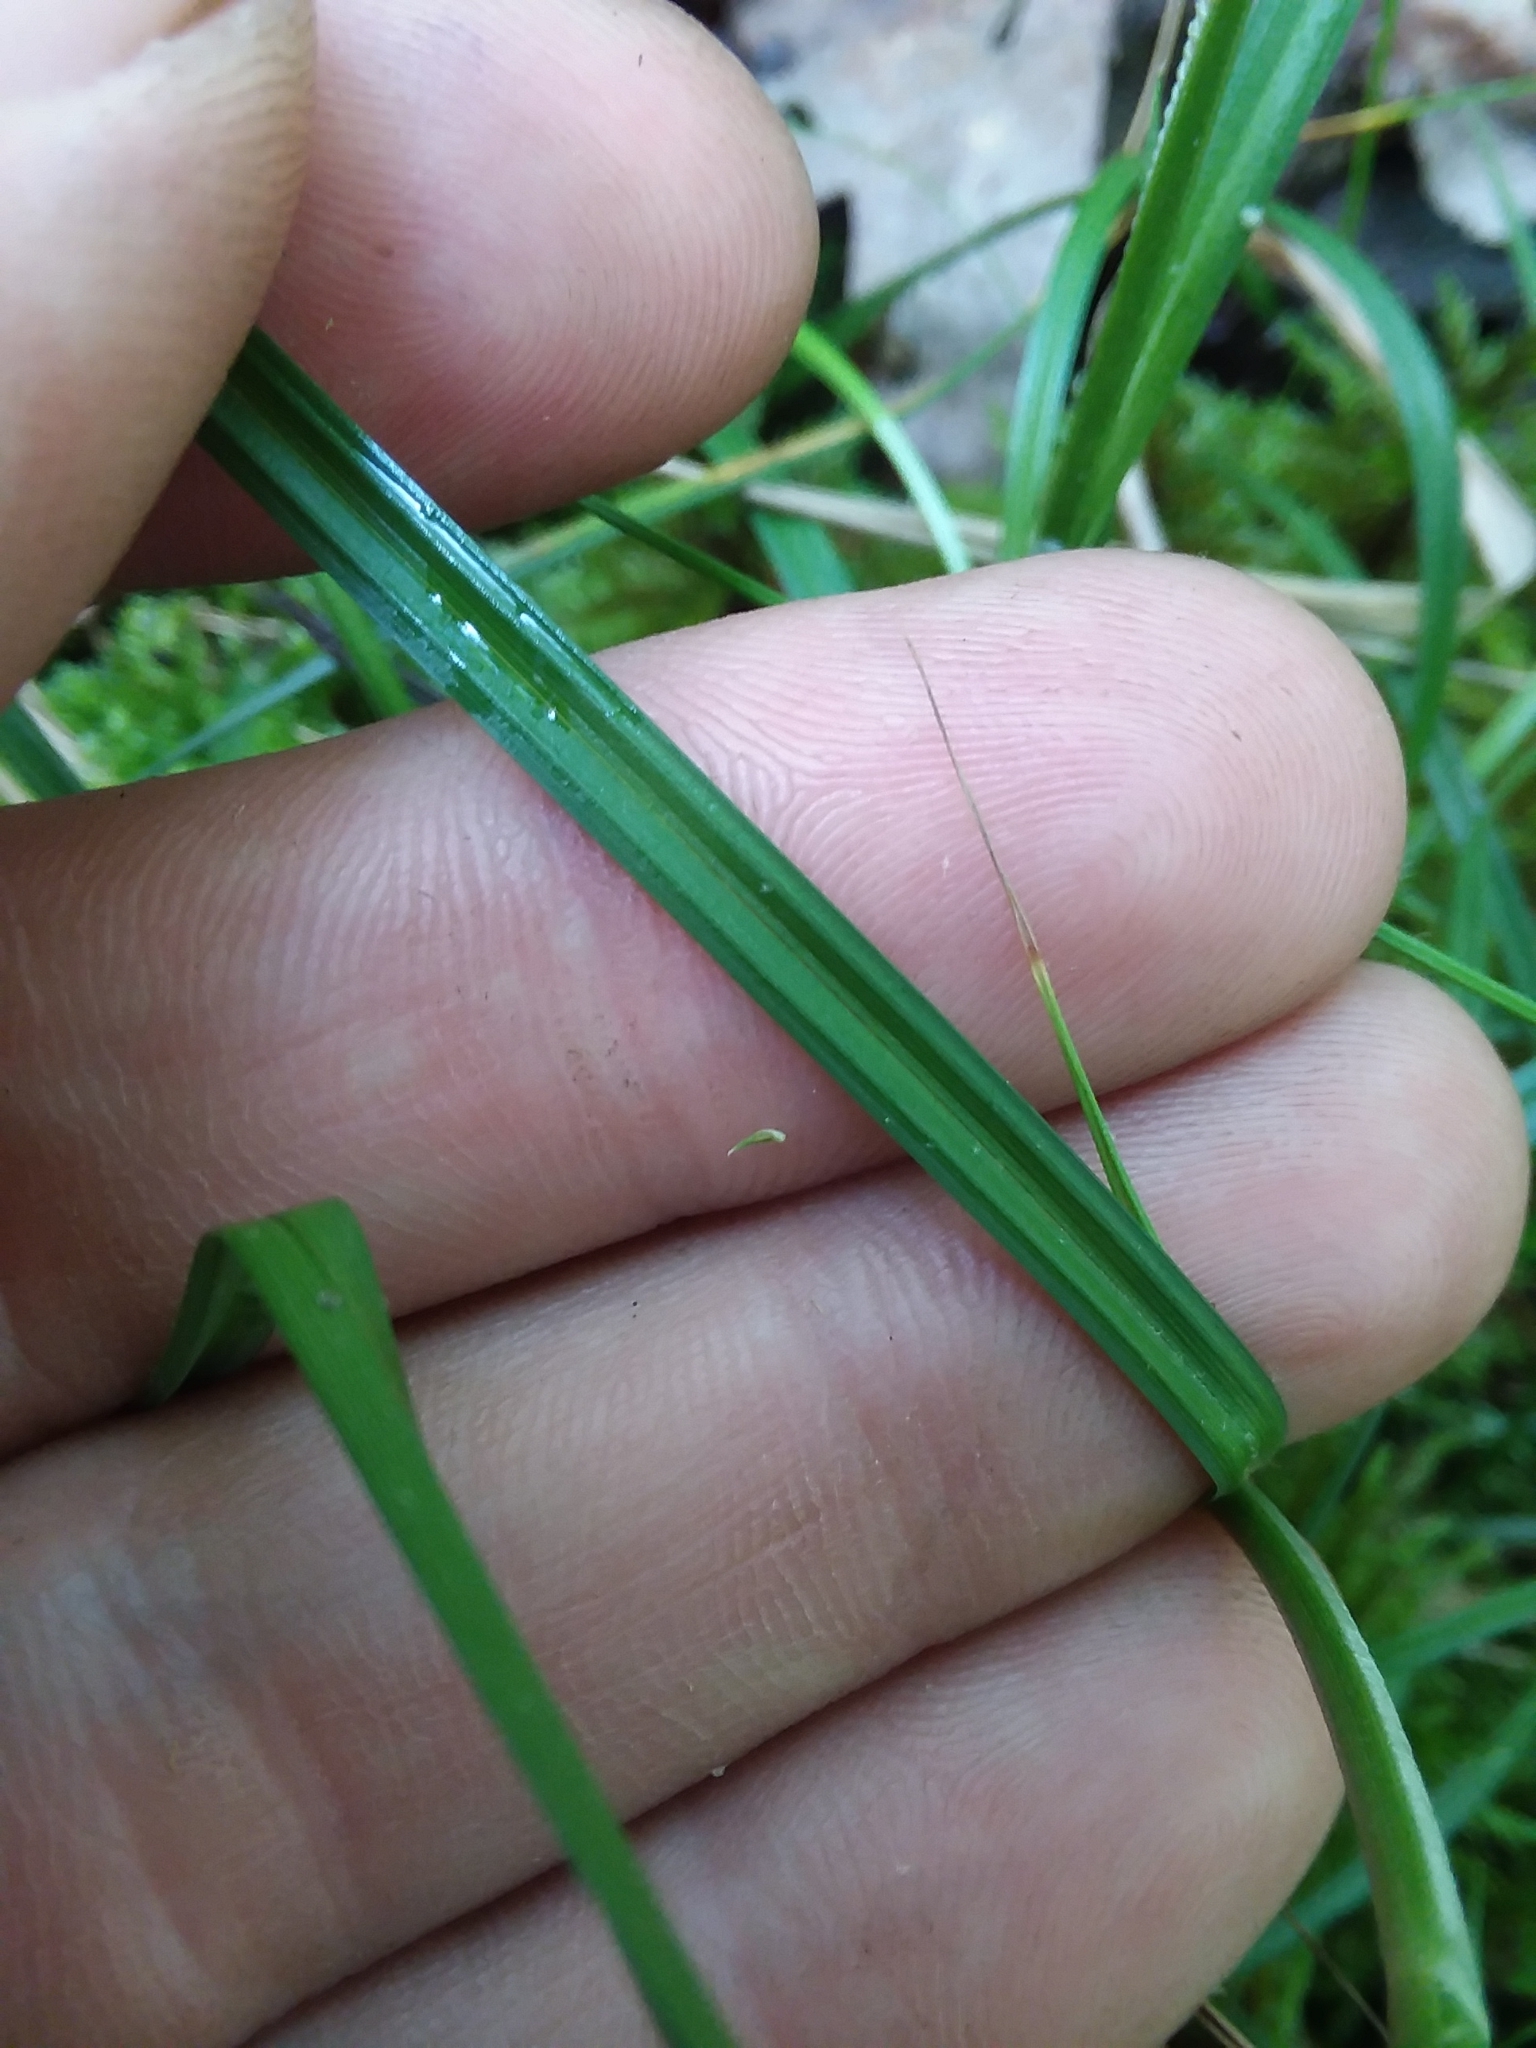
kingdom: Plantae
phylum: Tracheophyta
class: Liliopsida
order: Poales
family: Cyperaceae
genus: Carex
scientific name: Carex fissa
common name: Hammock sedge
